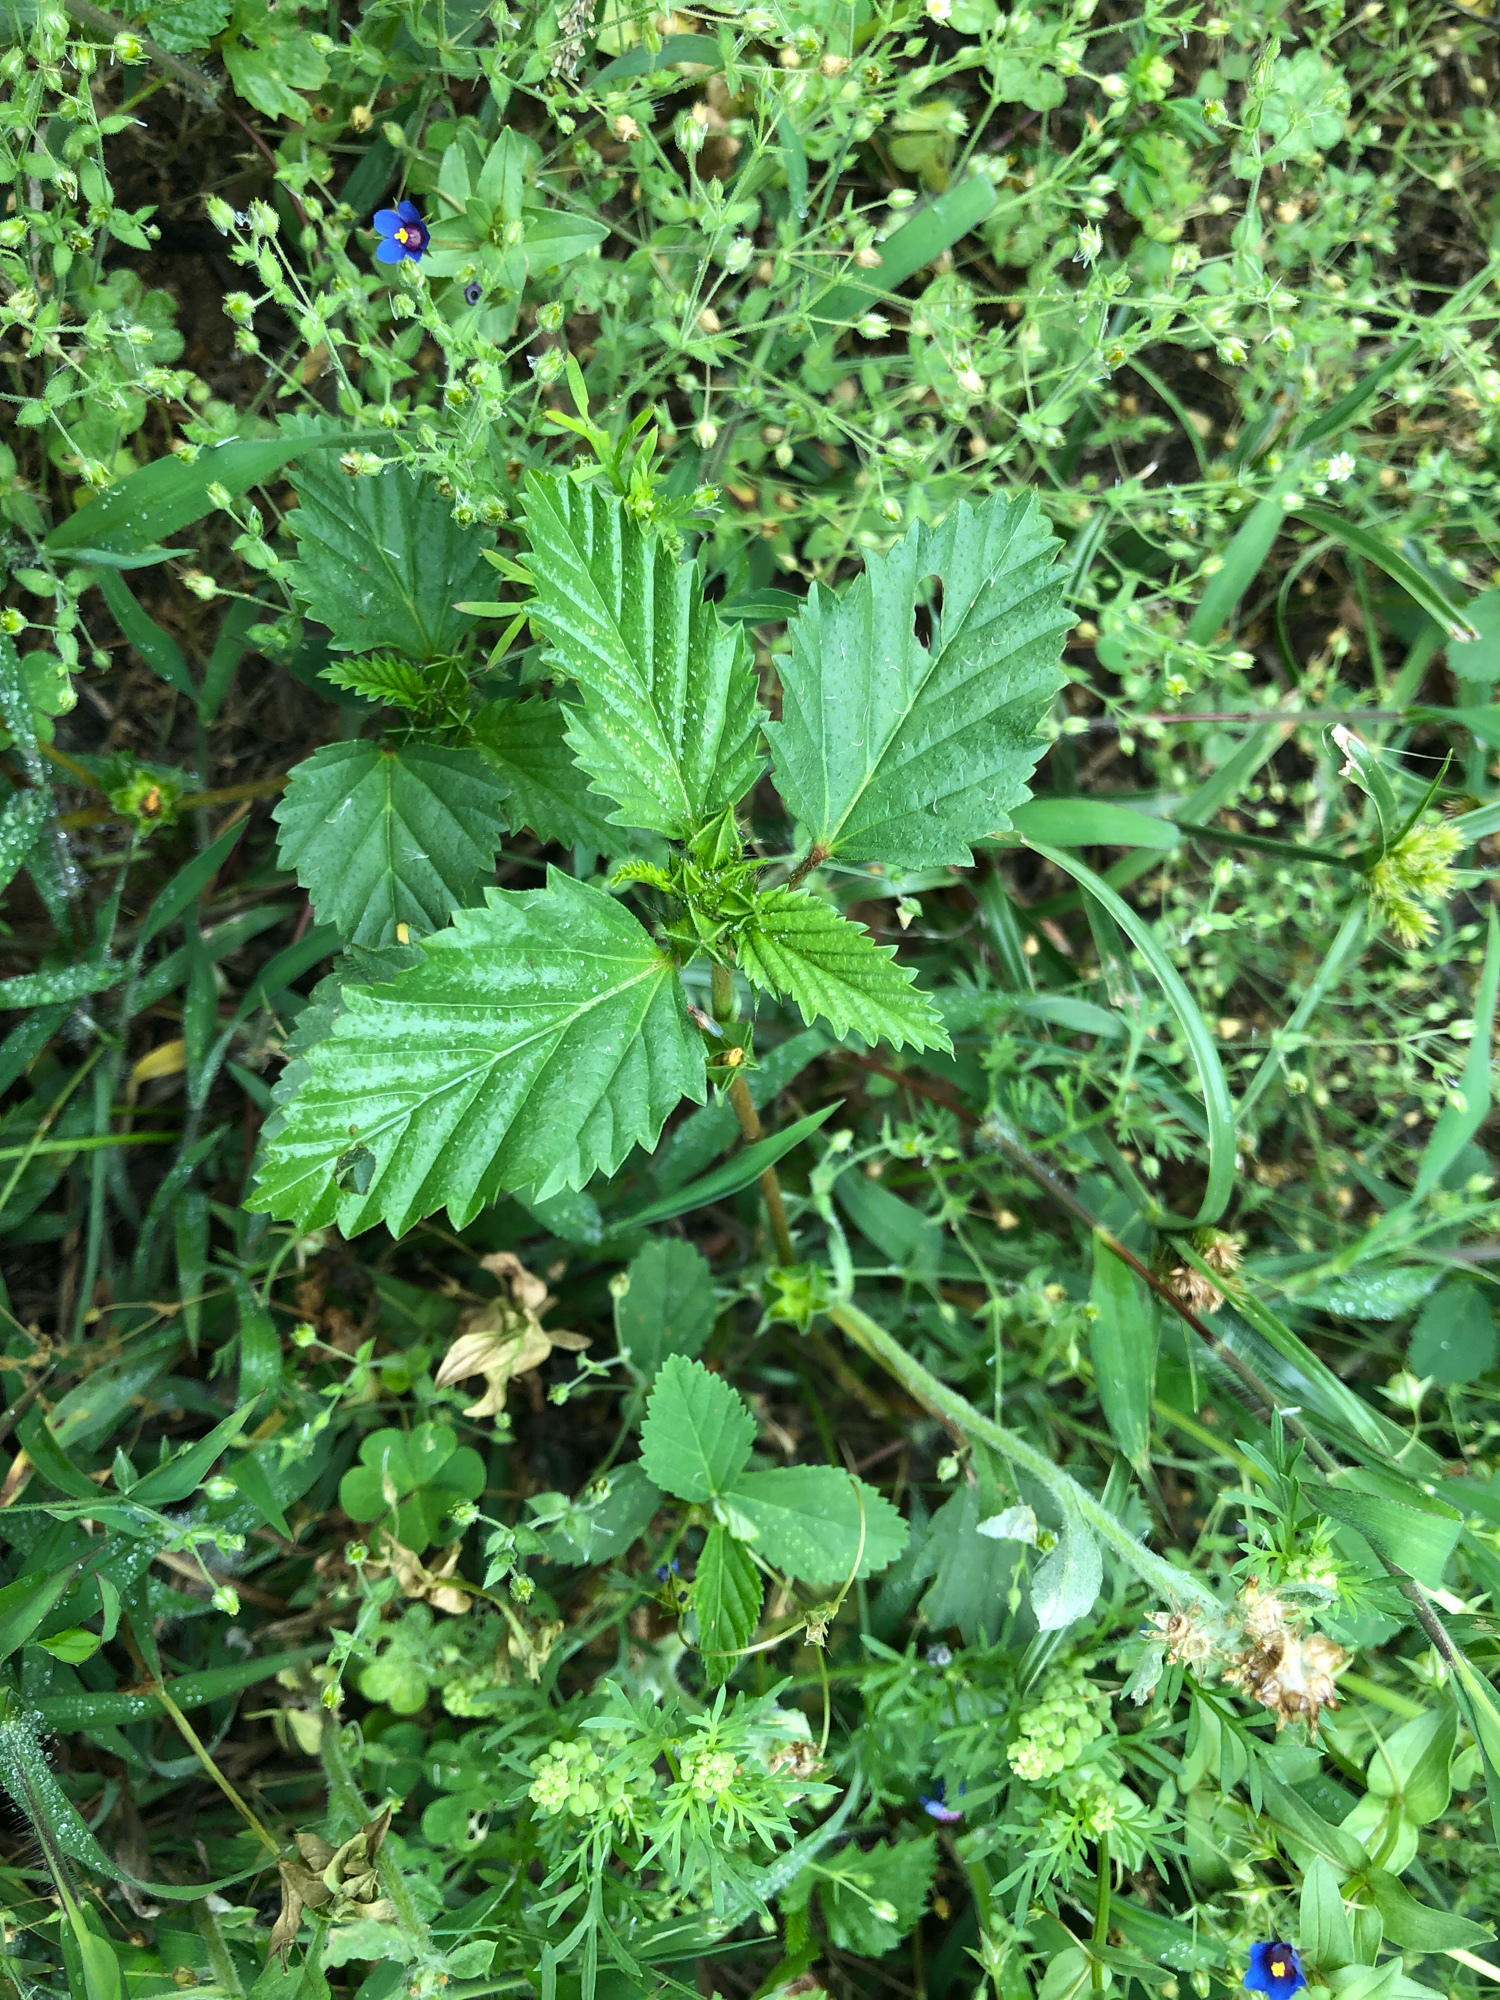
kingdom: Plantae
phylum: Tracheophyta
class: Magnoliopsida
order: Malvales
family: Malvaceae
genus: Malvastrum
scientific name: Malvastrum coromandelianum
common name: Threelobe false mallow
